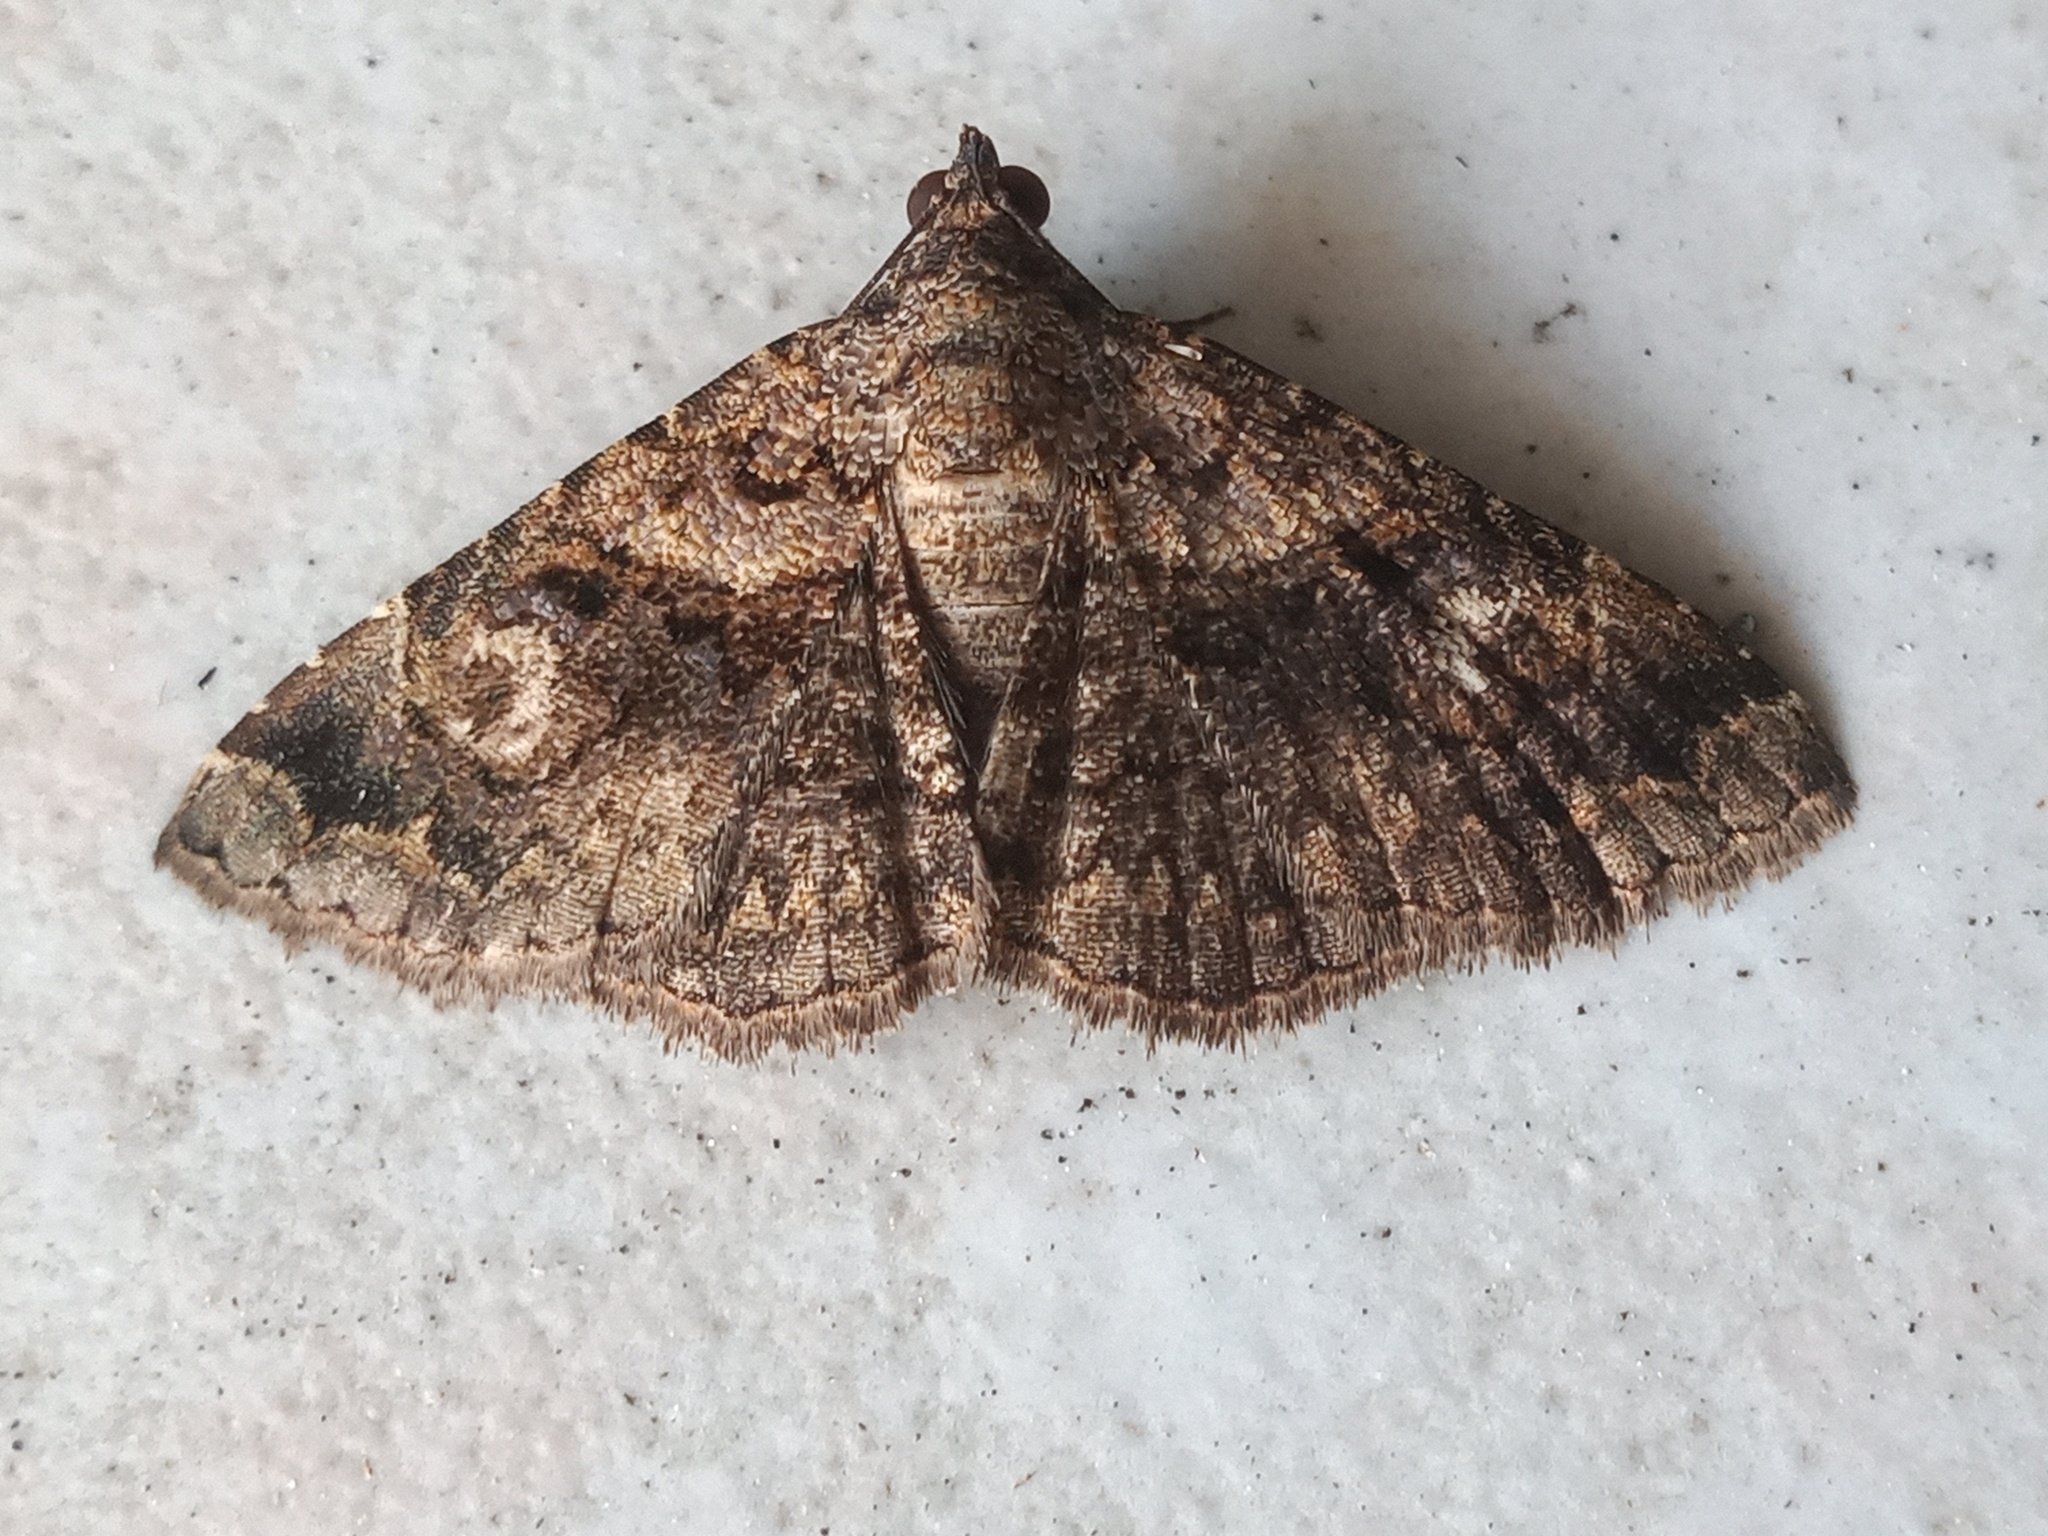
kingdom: Animalia
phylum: Arthropoda
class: Insecta
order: Lepidoptera
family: Erebidae
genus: Toxonprucha
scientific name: Toxonprucha crudelis
